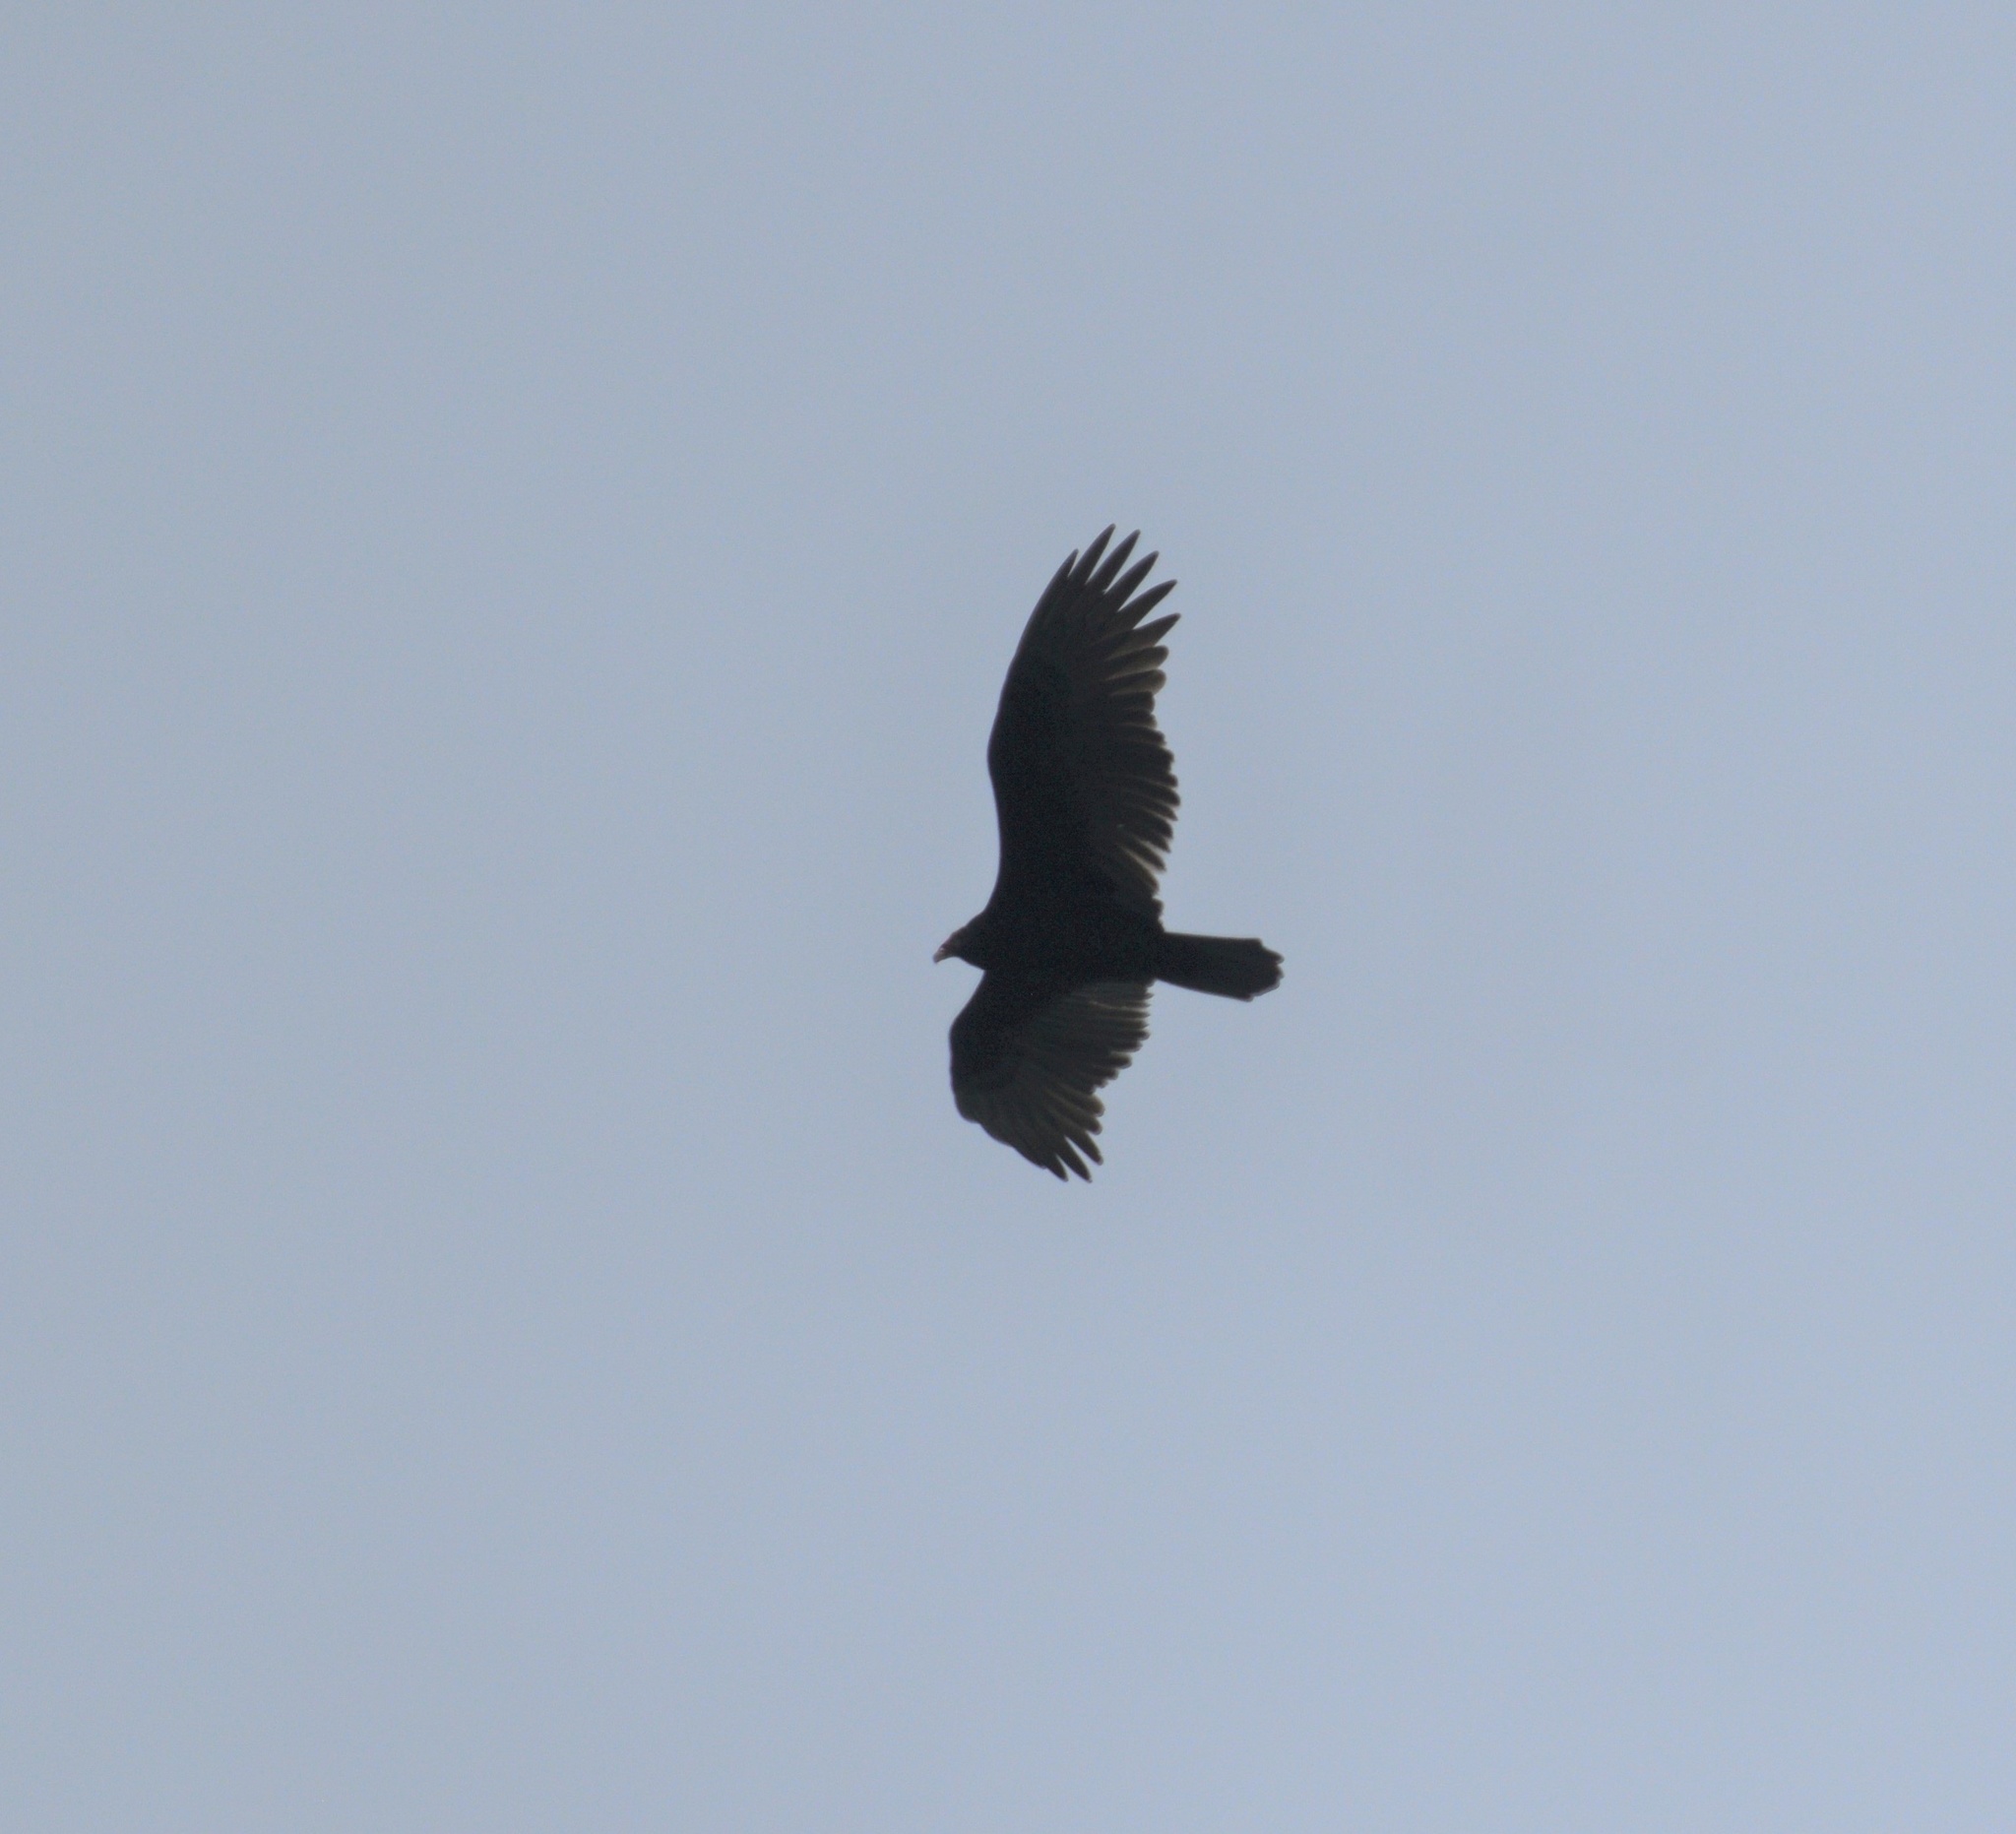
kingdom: Animalia
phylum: Chordata
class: Aves
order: Accipitriformes
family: Cathartidae
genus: Cathartes
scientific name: Cathartes aura
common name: Turkey vulture
